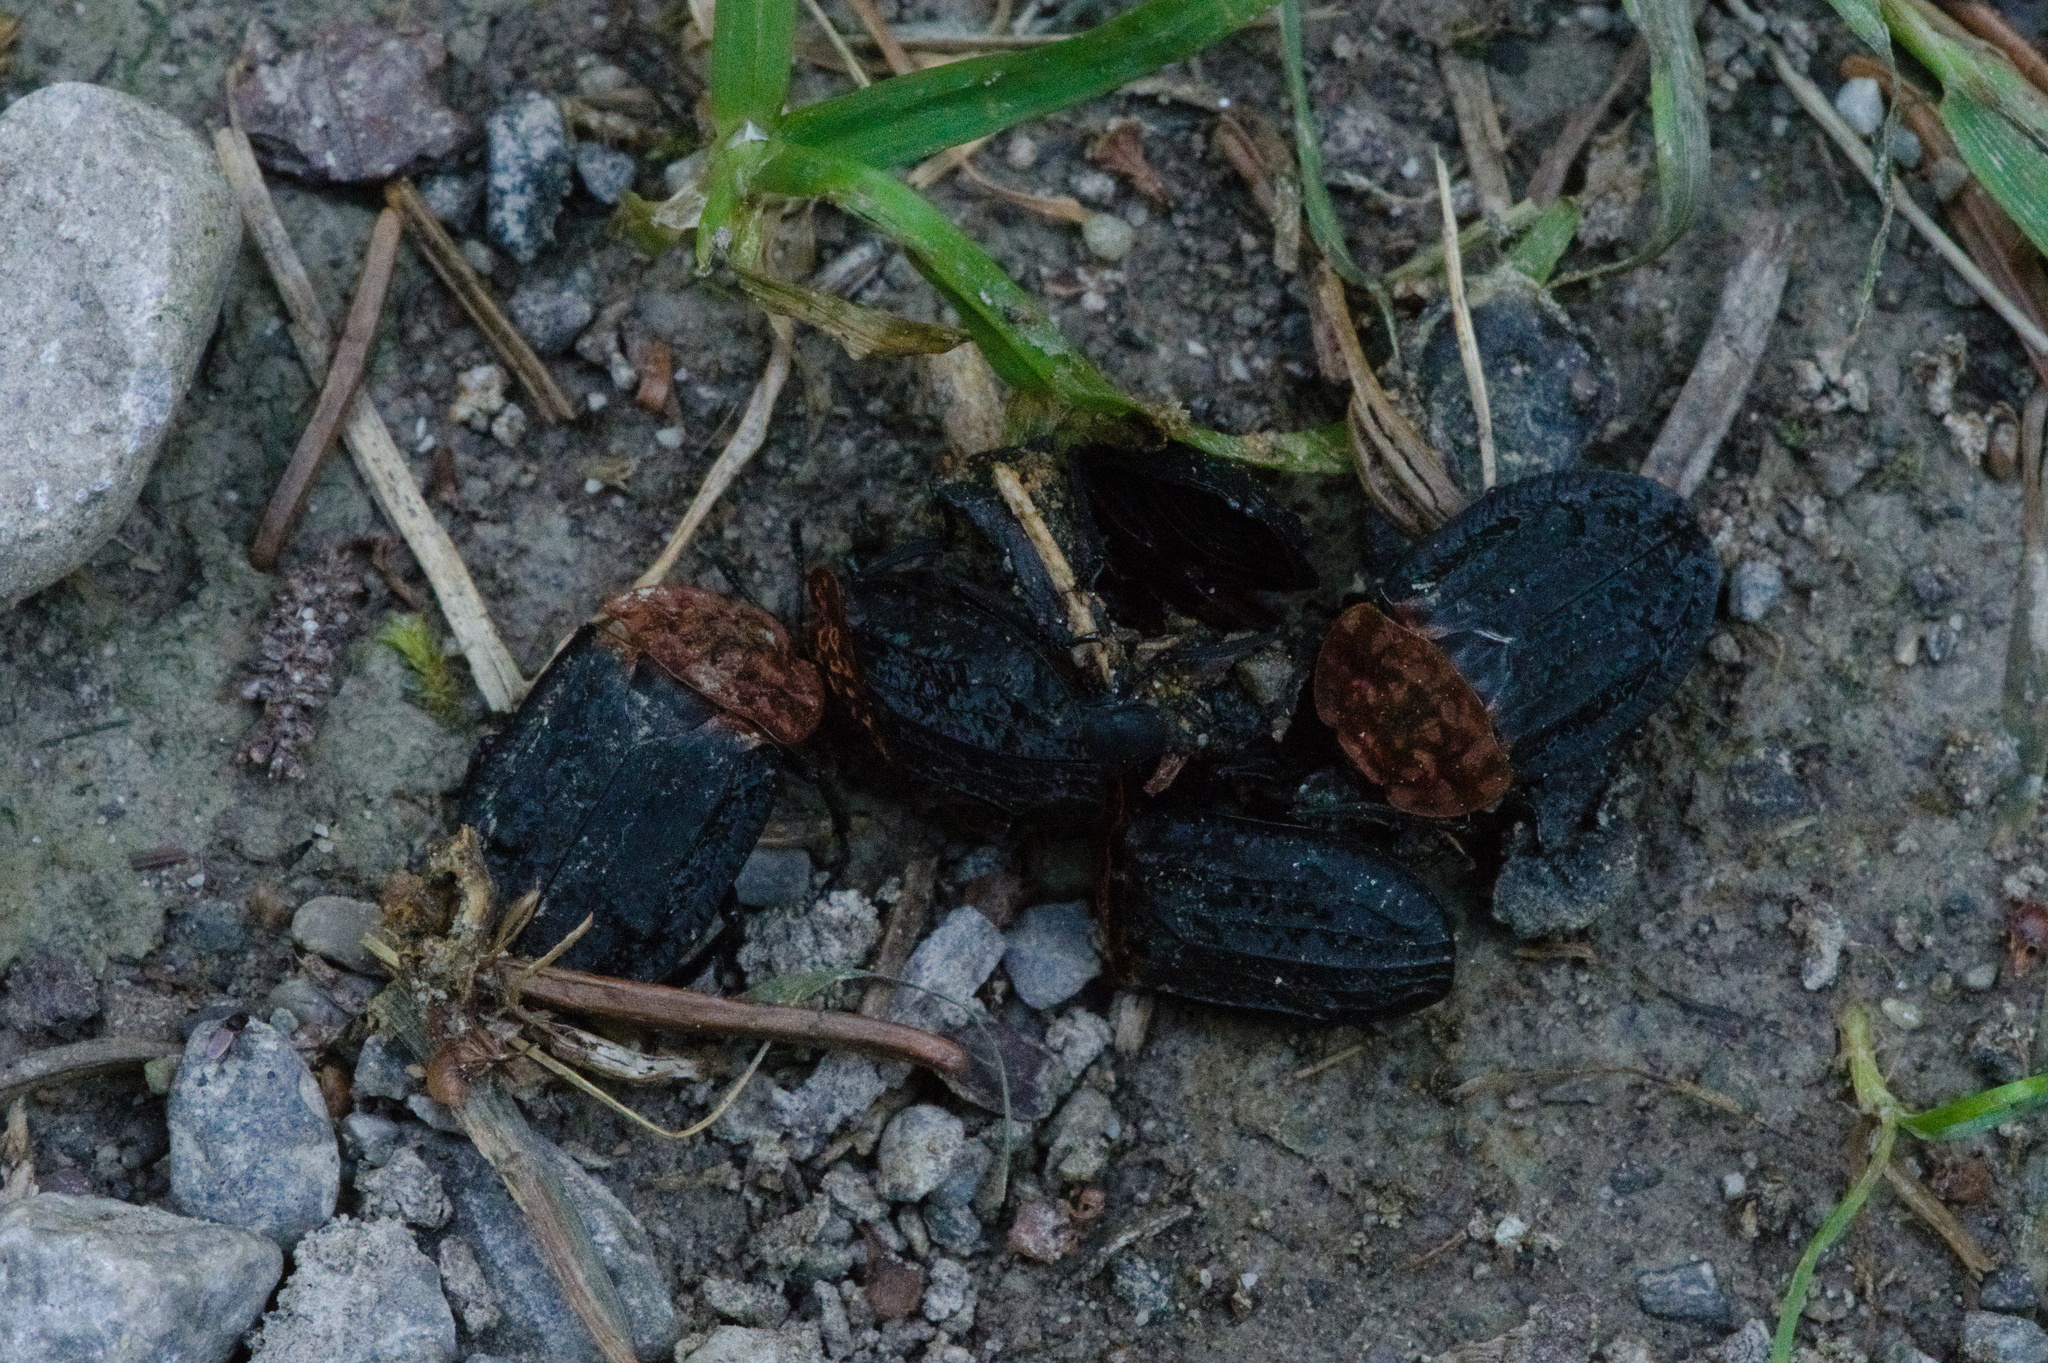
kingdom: Animalia
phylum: Arthropoda
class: Insecta
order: Coleoptera
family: Staphylinidae
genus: Oiceoptoma
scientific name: Oiceoptoma thoracicum
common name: Red-breasted carrion beetle
